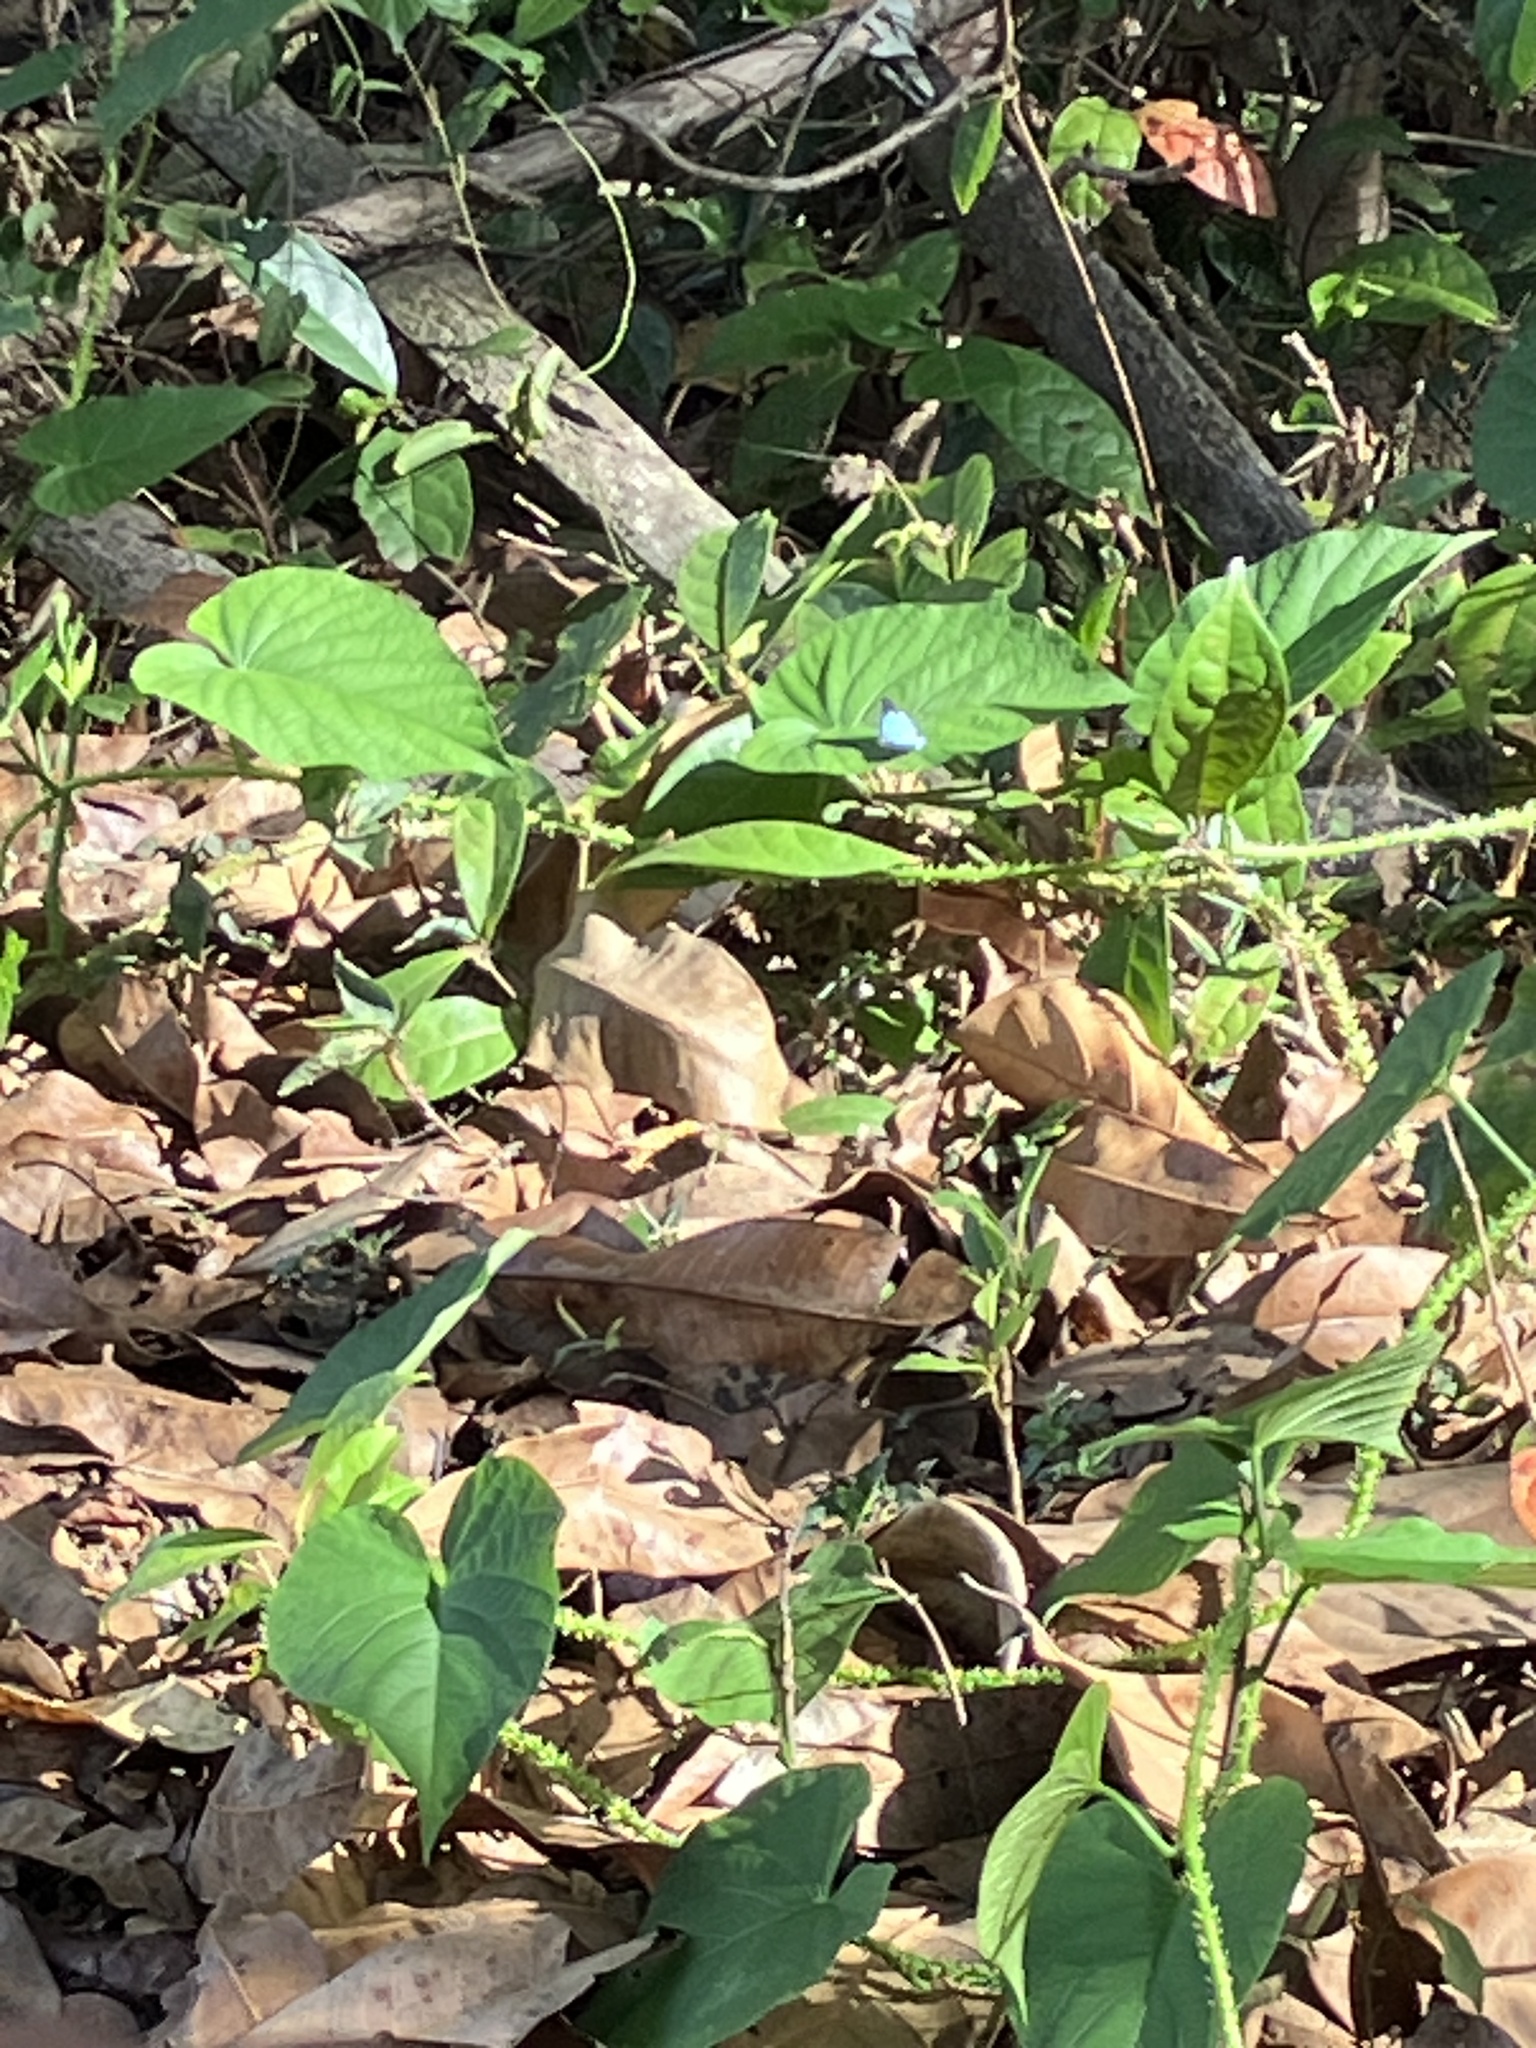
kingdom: Animalia
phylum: Arthropoda
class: Insecta
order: Lepidoptera
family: Lycaenidae
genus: Chliaria
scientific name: Chliaria othona
